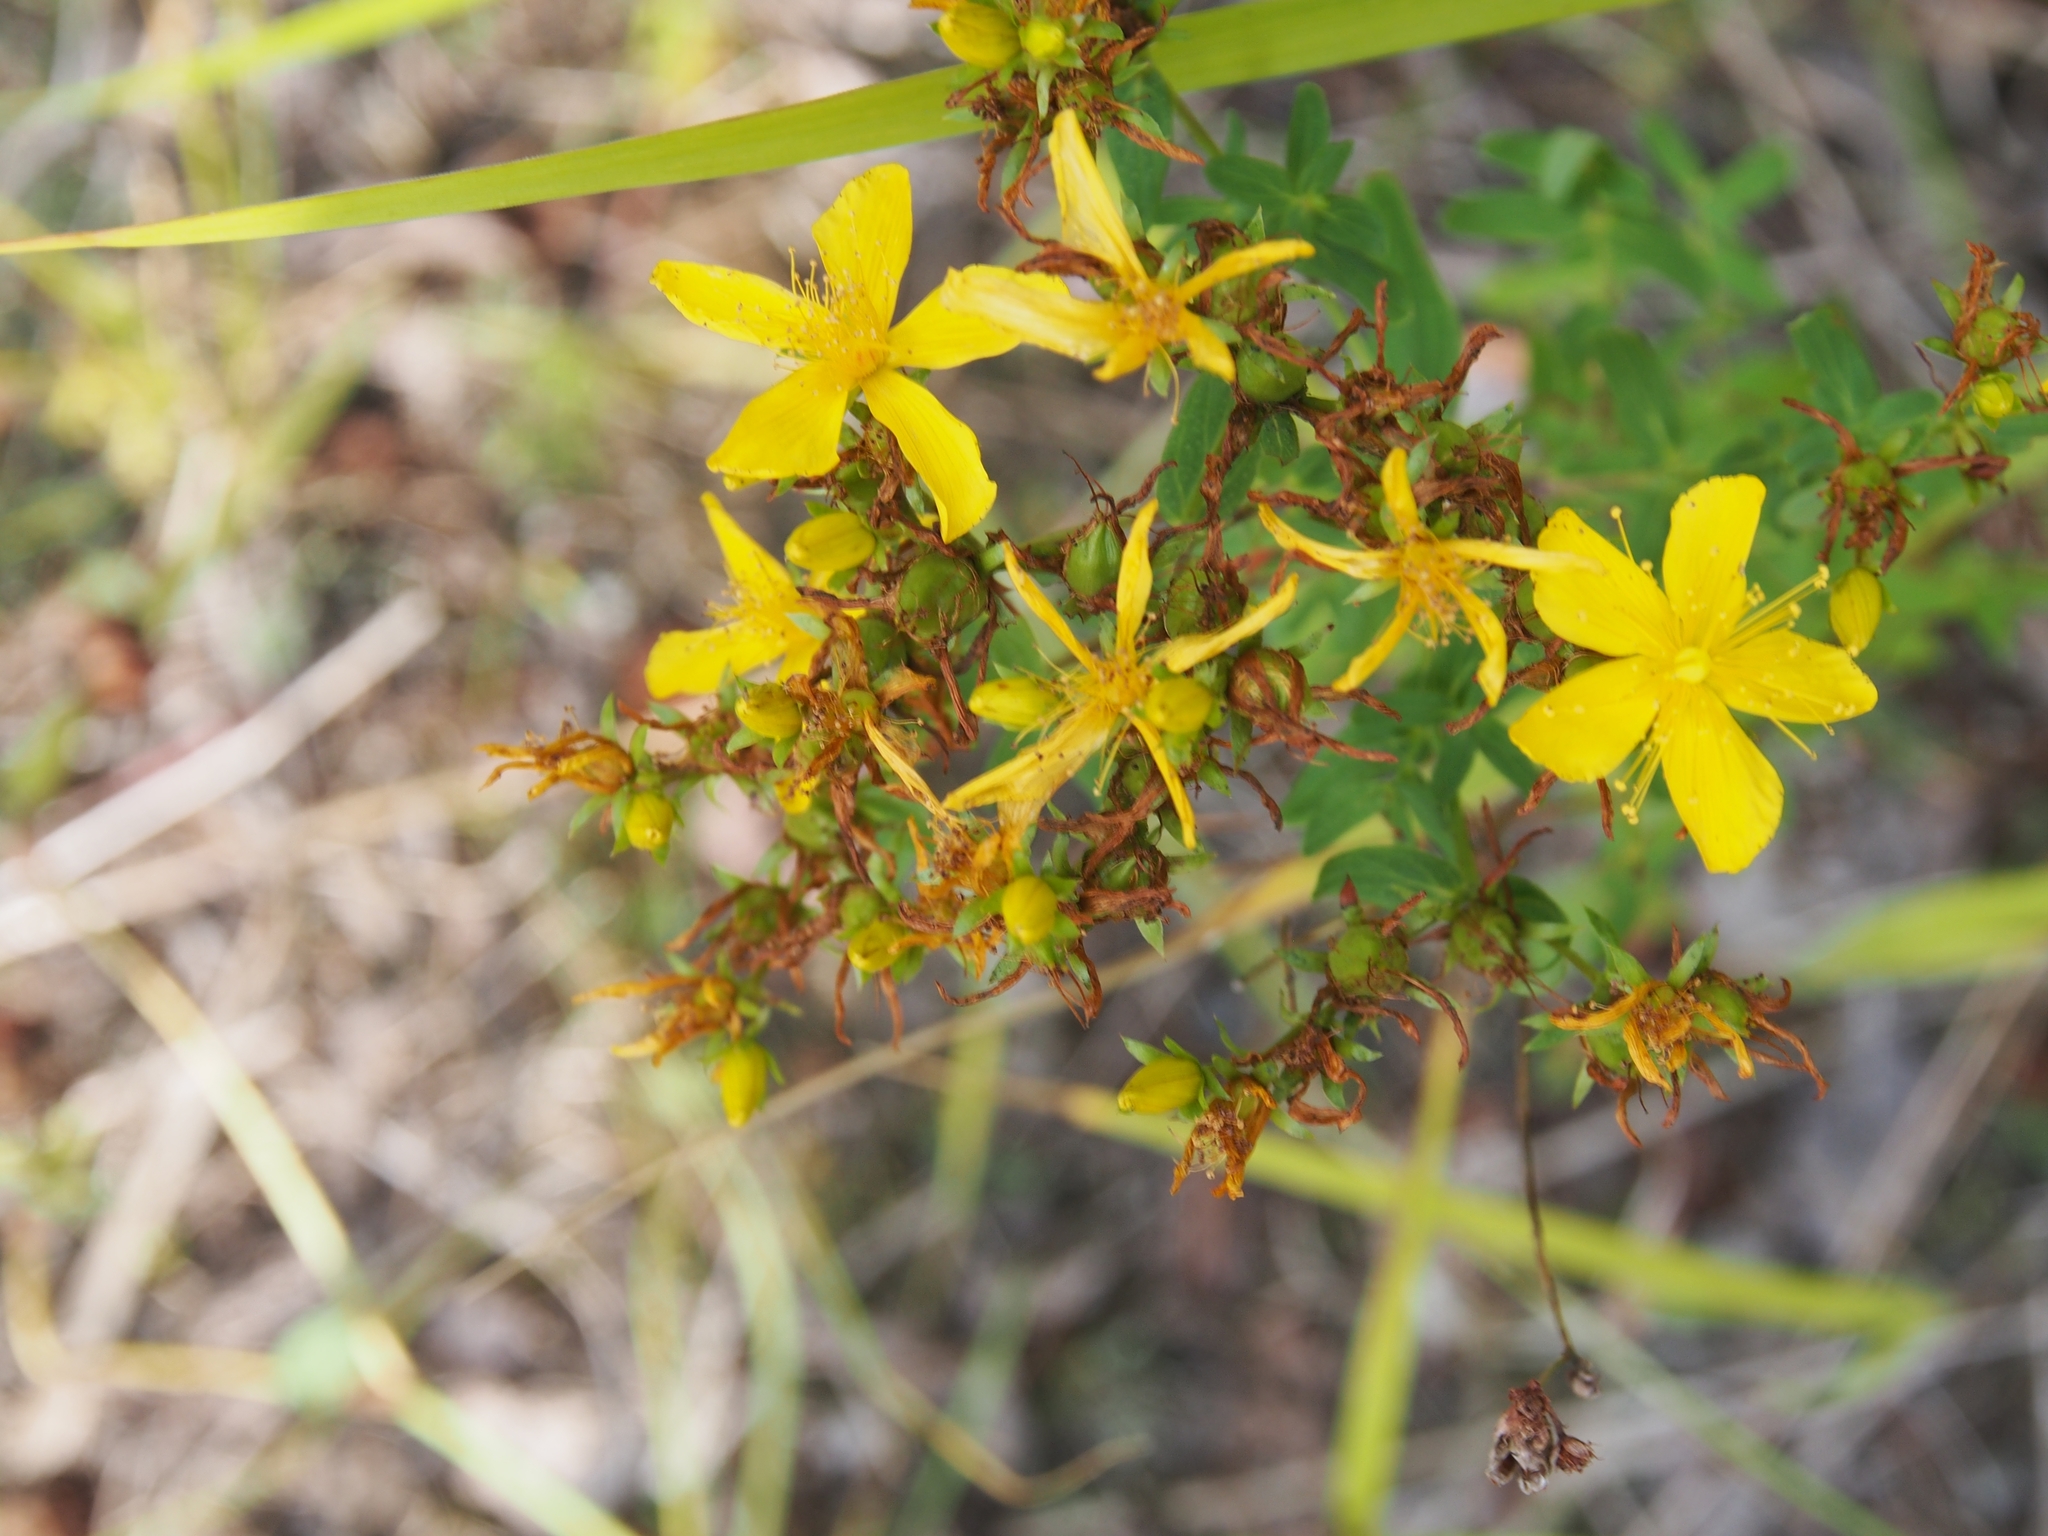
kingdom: Plantae
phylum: Tracheophyta
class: Magnoliopsida
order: Malpighiales
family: Hypericaceae
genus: Hypericum
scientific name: Hypericum perforatum
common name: Common st. johnswort
